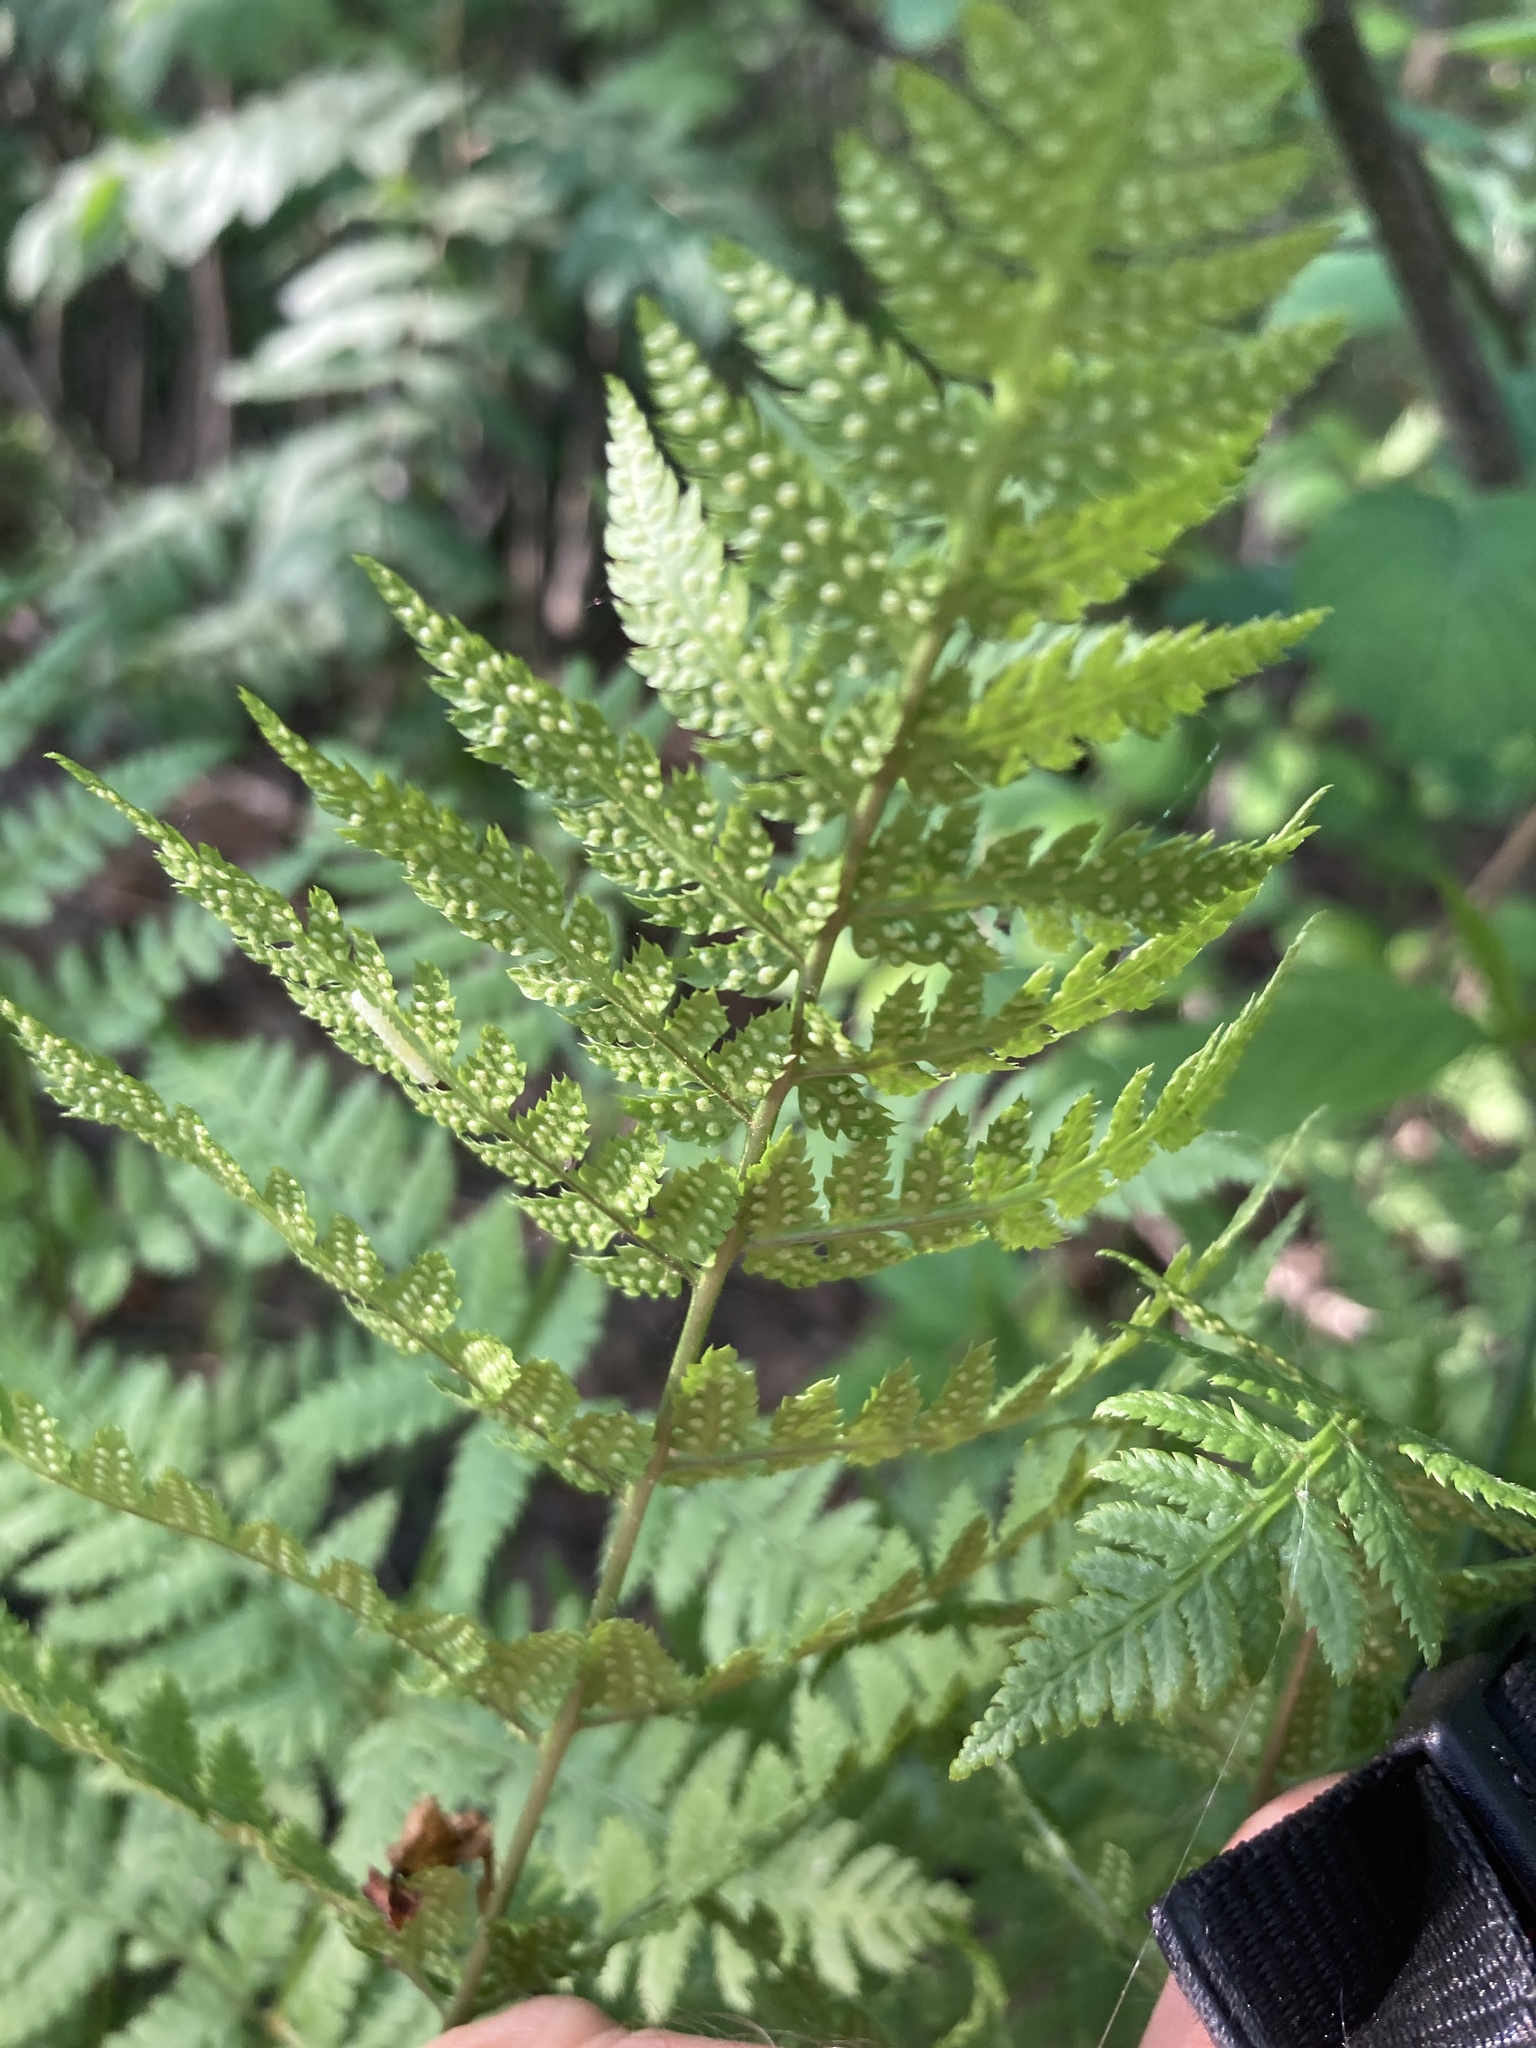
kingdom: Plantae
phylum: Tracheophyta
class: Polypodiopsida
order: Polypodiales
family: Dryopteridaceae
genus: Dryopteris
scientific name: Dryopteris carthusiana
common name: Narrow buckler-fern
